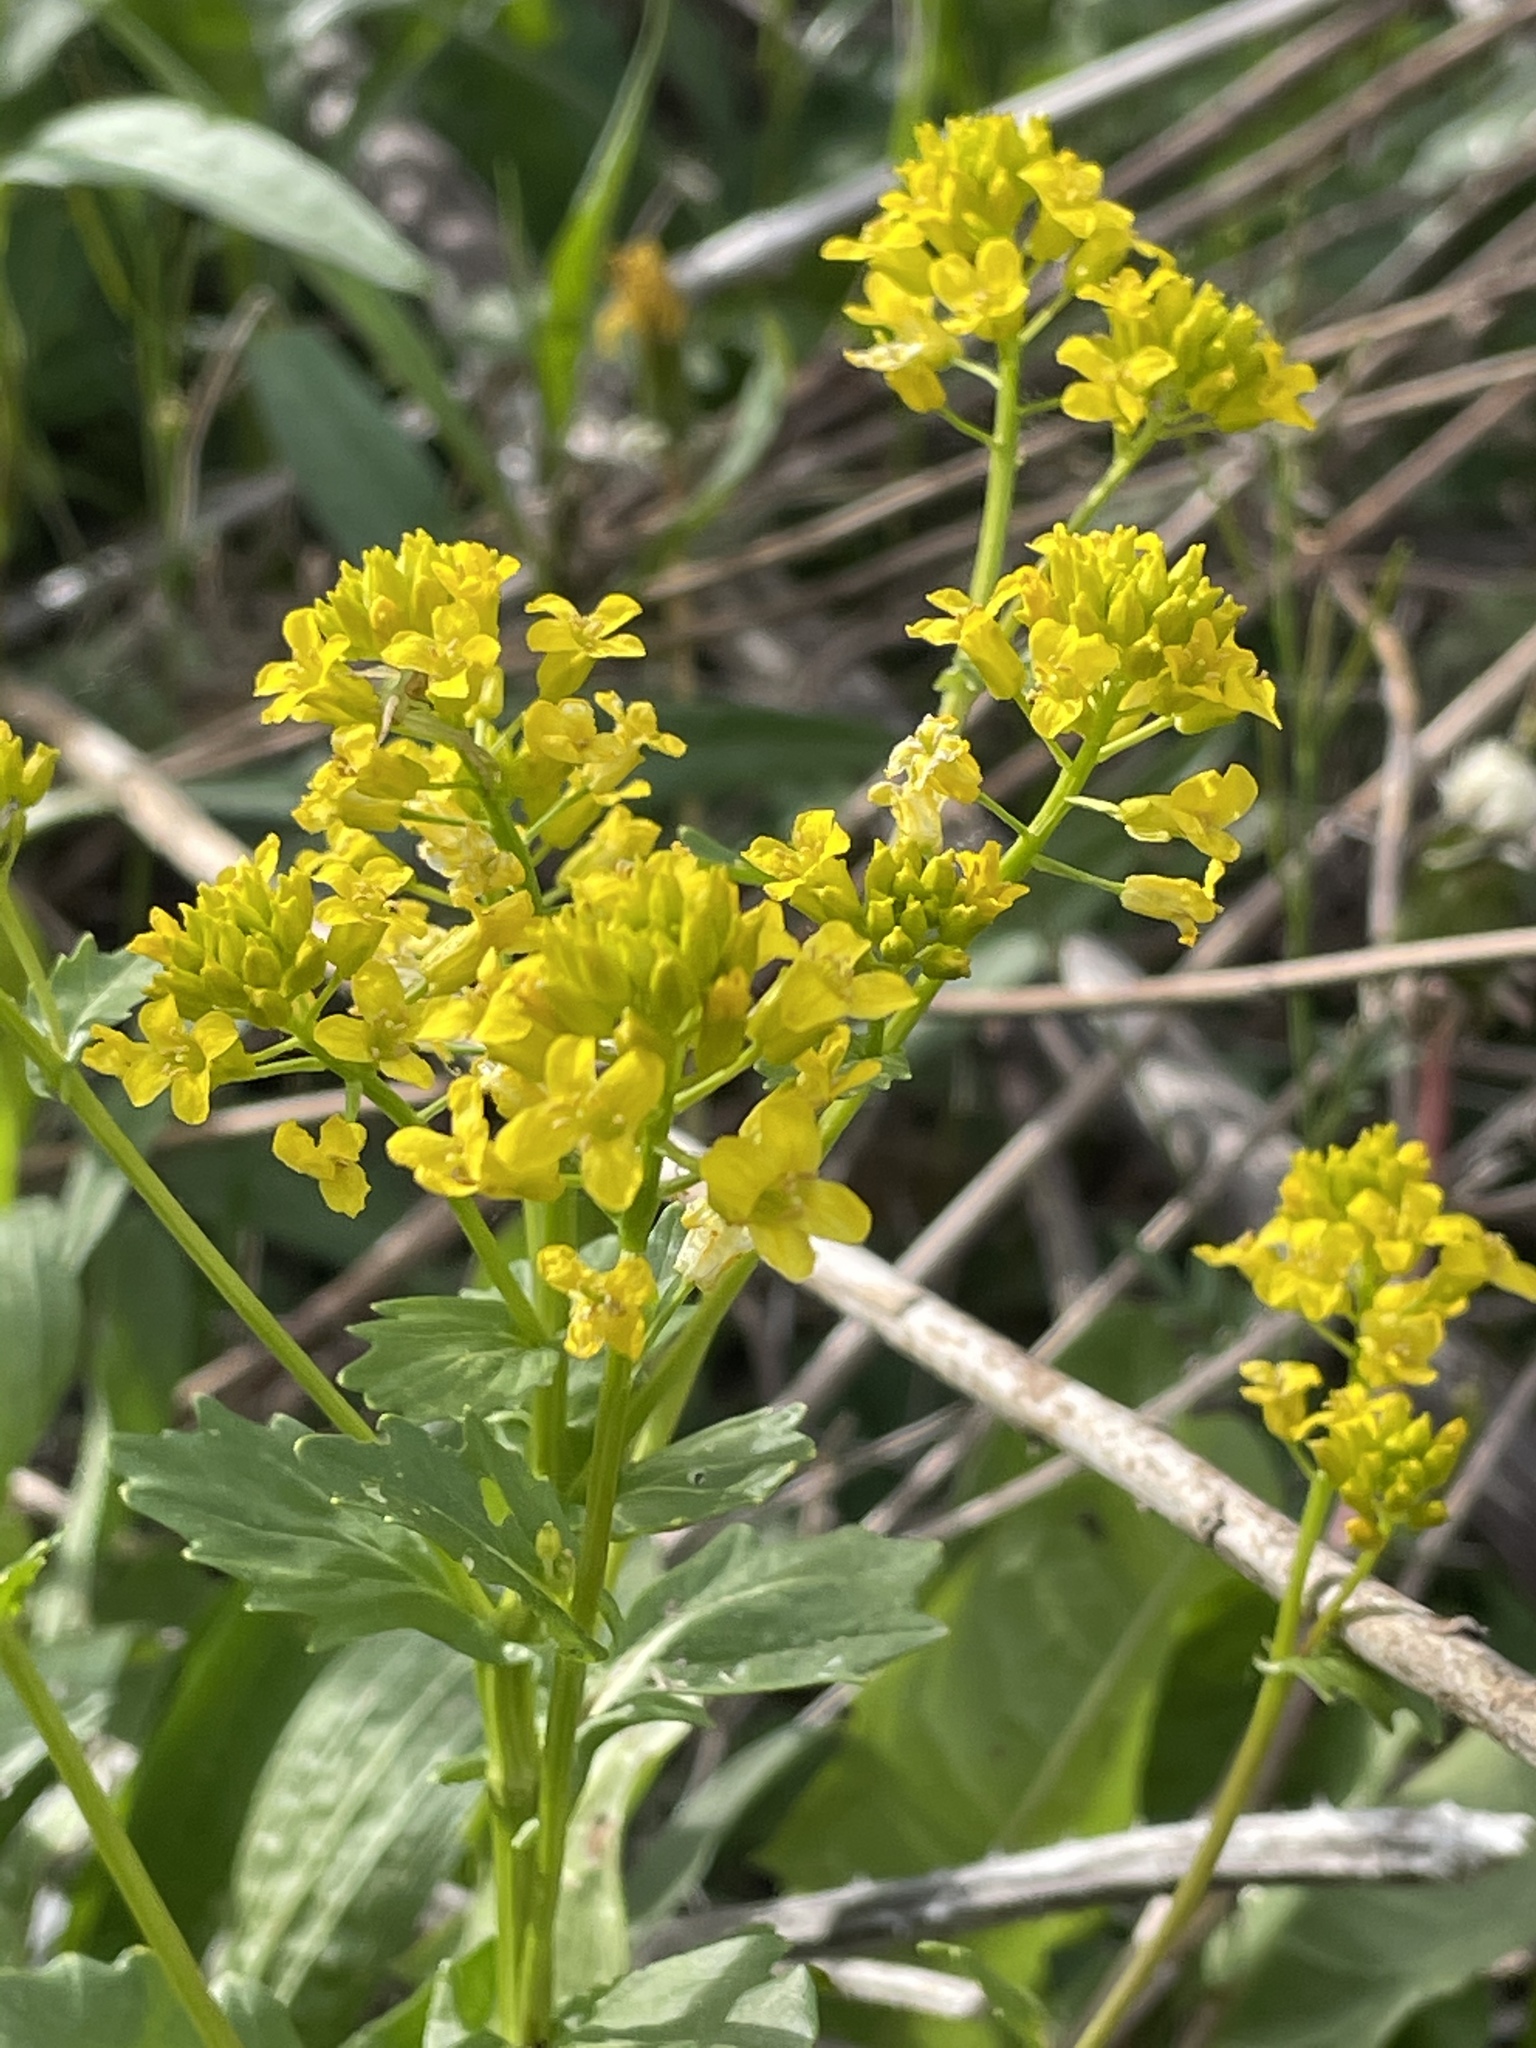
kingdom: Plantae
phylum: Tracheophyta
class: Magnoliopsida
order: Brassicales
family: Brassicaceae
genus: Barbarea
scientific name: Barbarea vulgaris
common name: Cressy-greens
